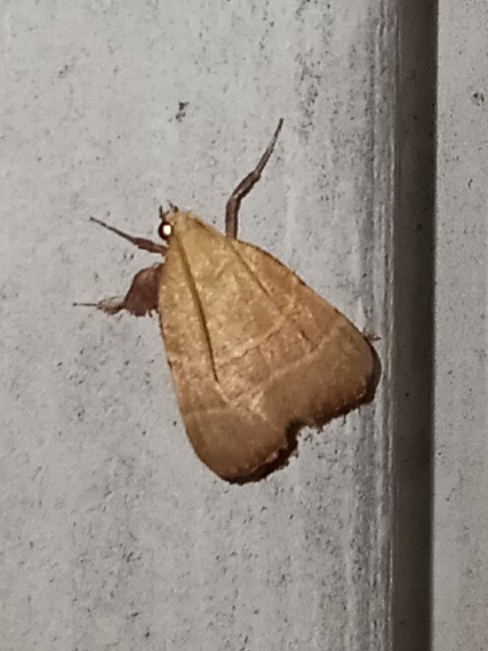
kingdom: Animalia
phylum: Arthropoda
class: Insecta
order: Lepidoptera
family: Pyralidae
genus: Parachma
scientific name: Parachma ochracealis
